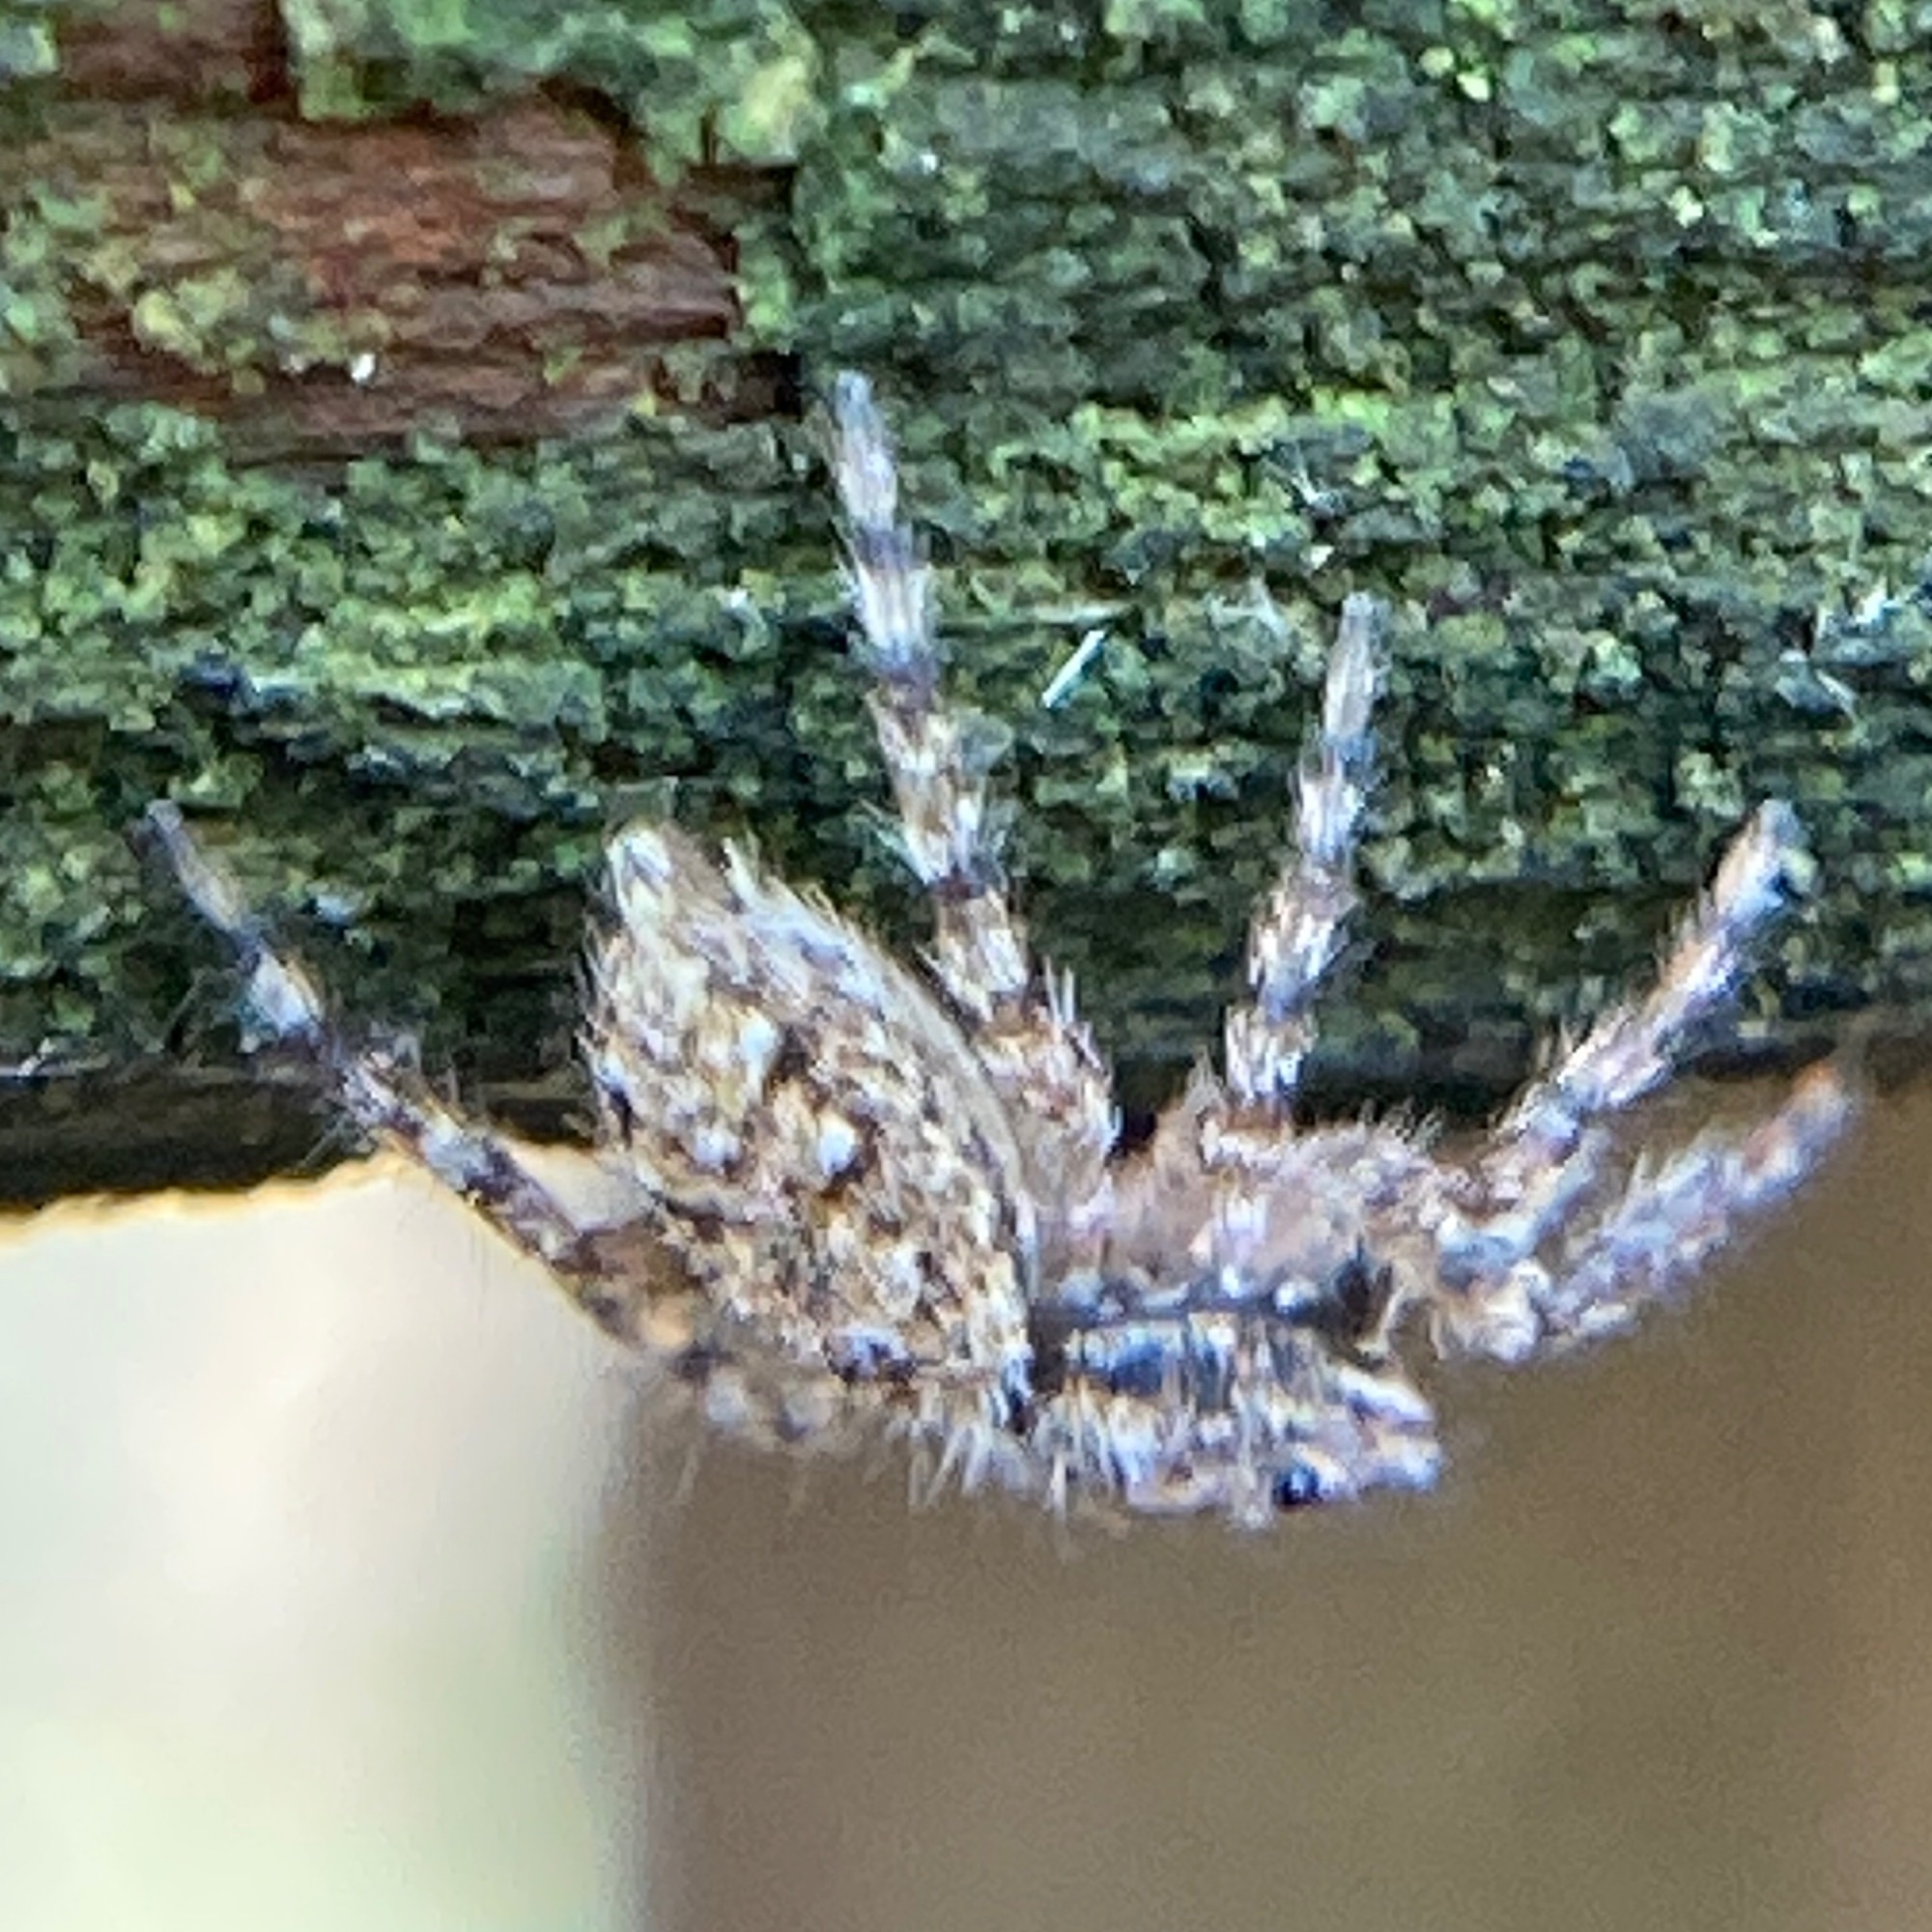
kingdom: Animalia
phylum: Arthropoda
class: Arachnida
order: Araneae
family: Salticidae
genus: Platycryptus
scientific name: Platycryptus undatus
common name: Tan jumping spider
